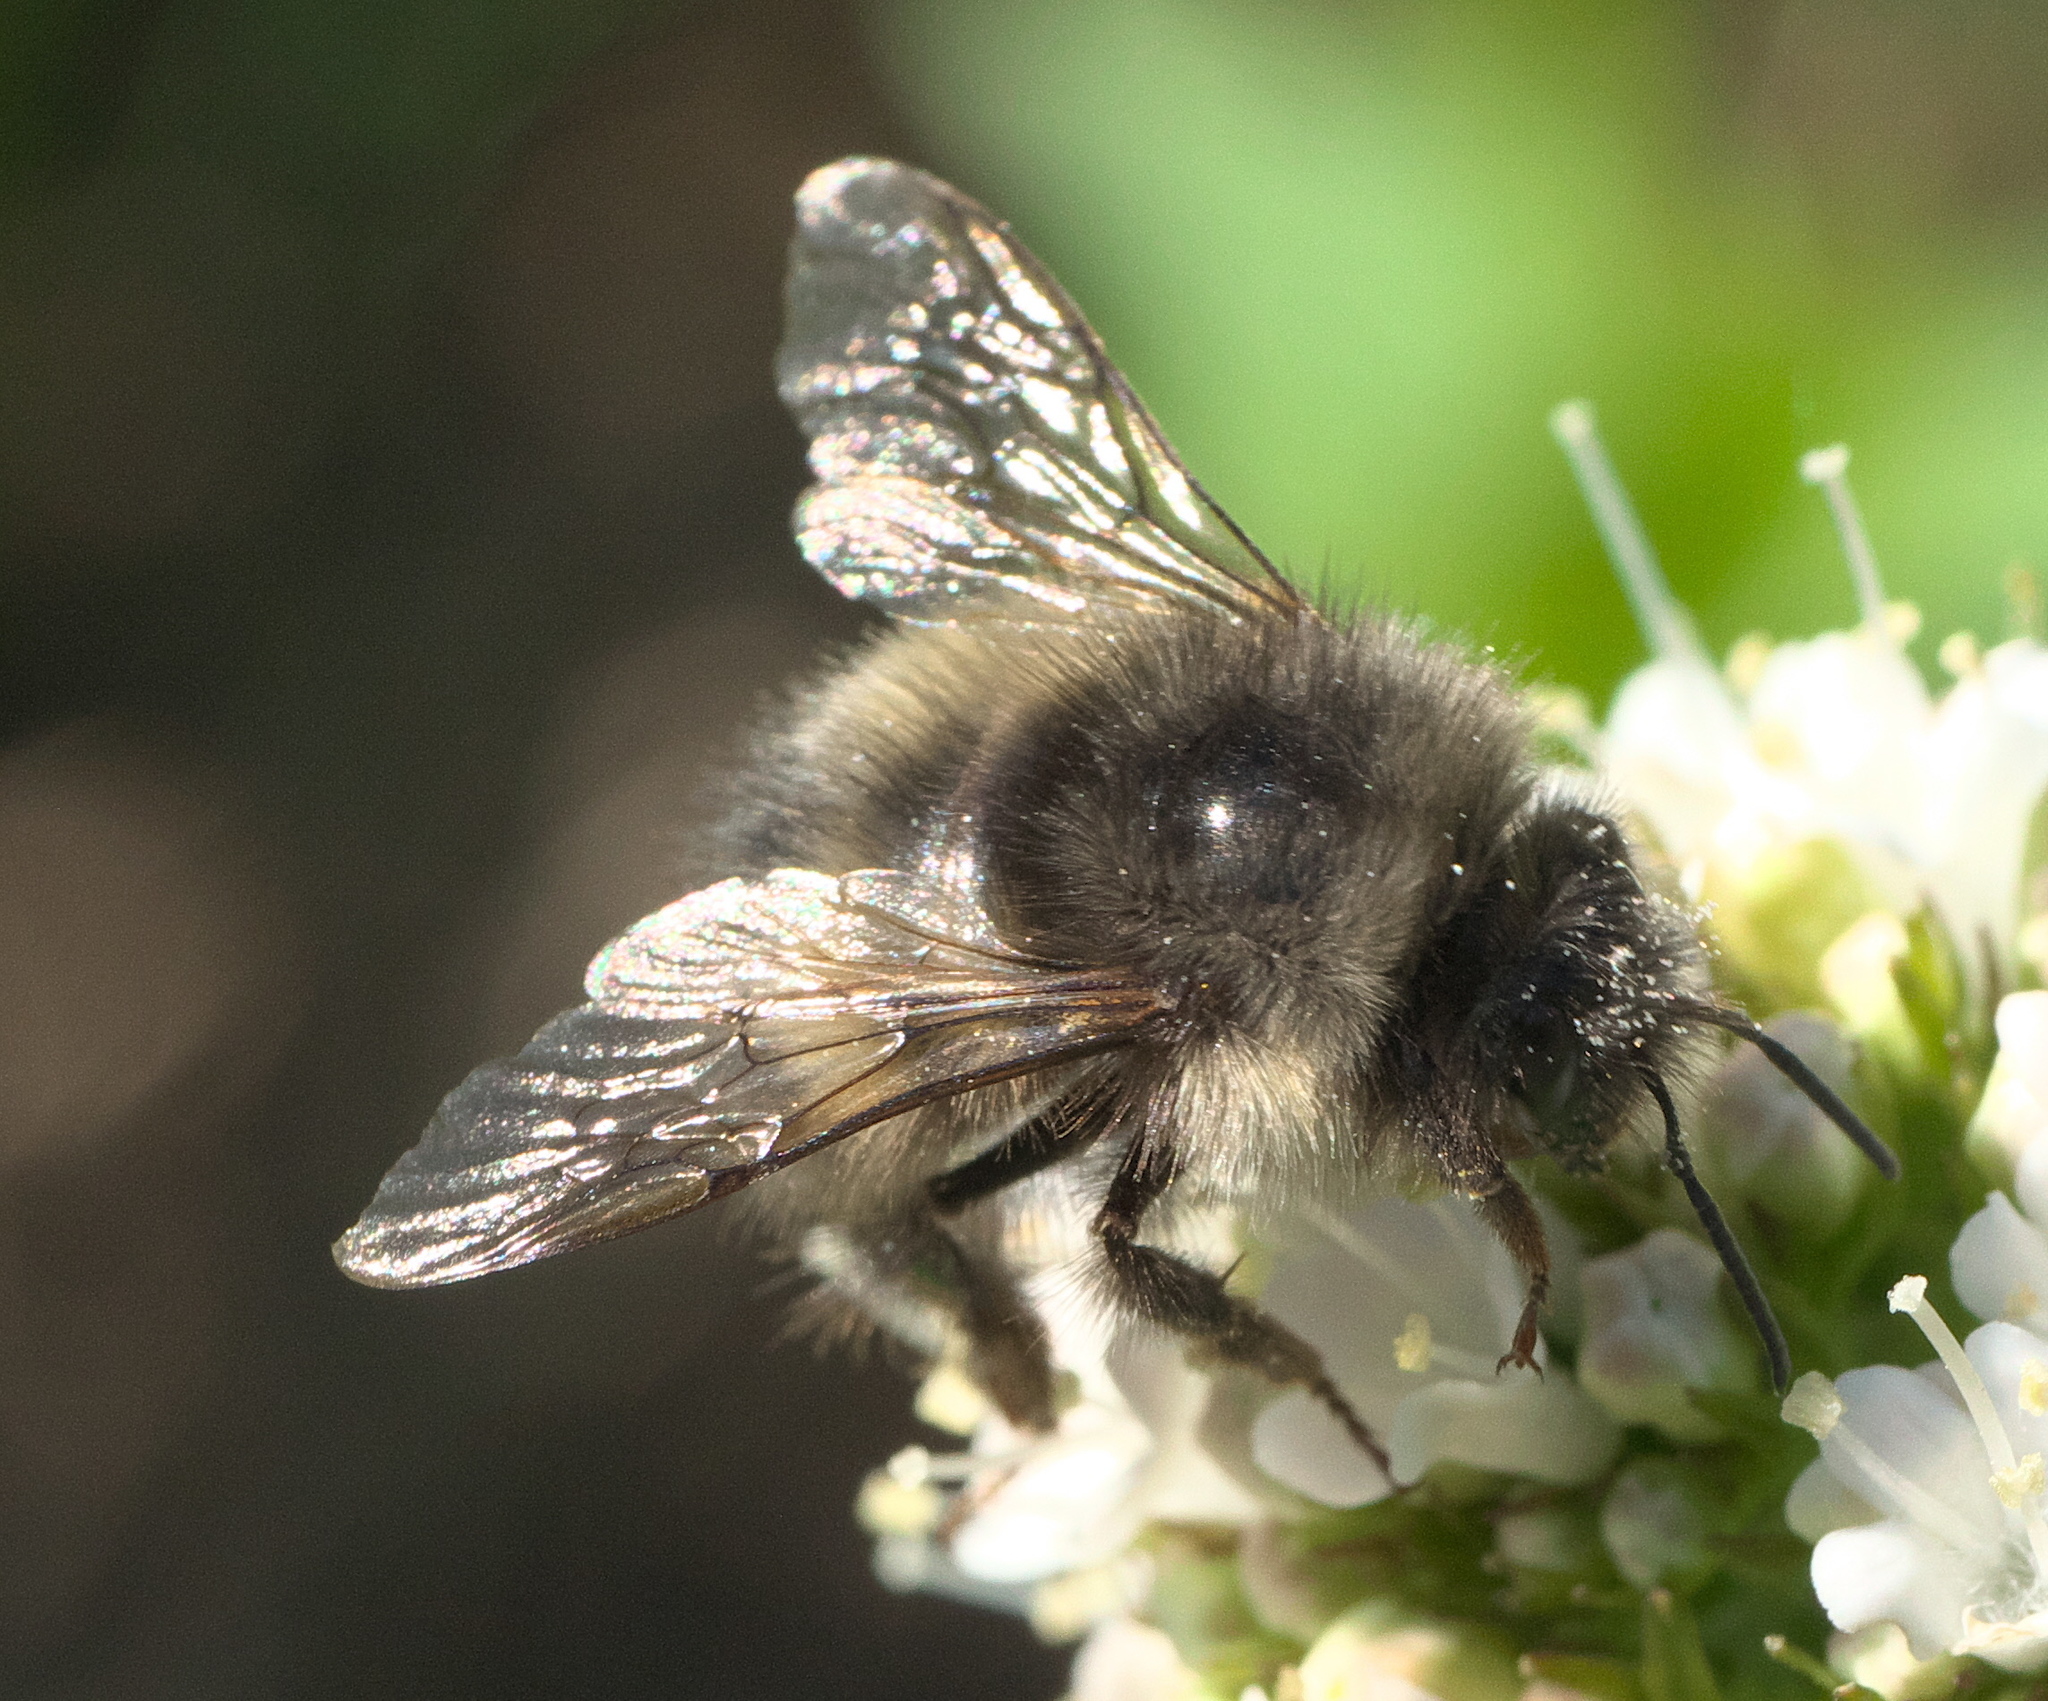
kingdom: Animalia
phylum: Arthropoda
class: Insecta
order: Hymenoptera
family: Apidae
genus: Bombus
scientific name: Bombus sitkensis
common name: Sitka bumble bee
